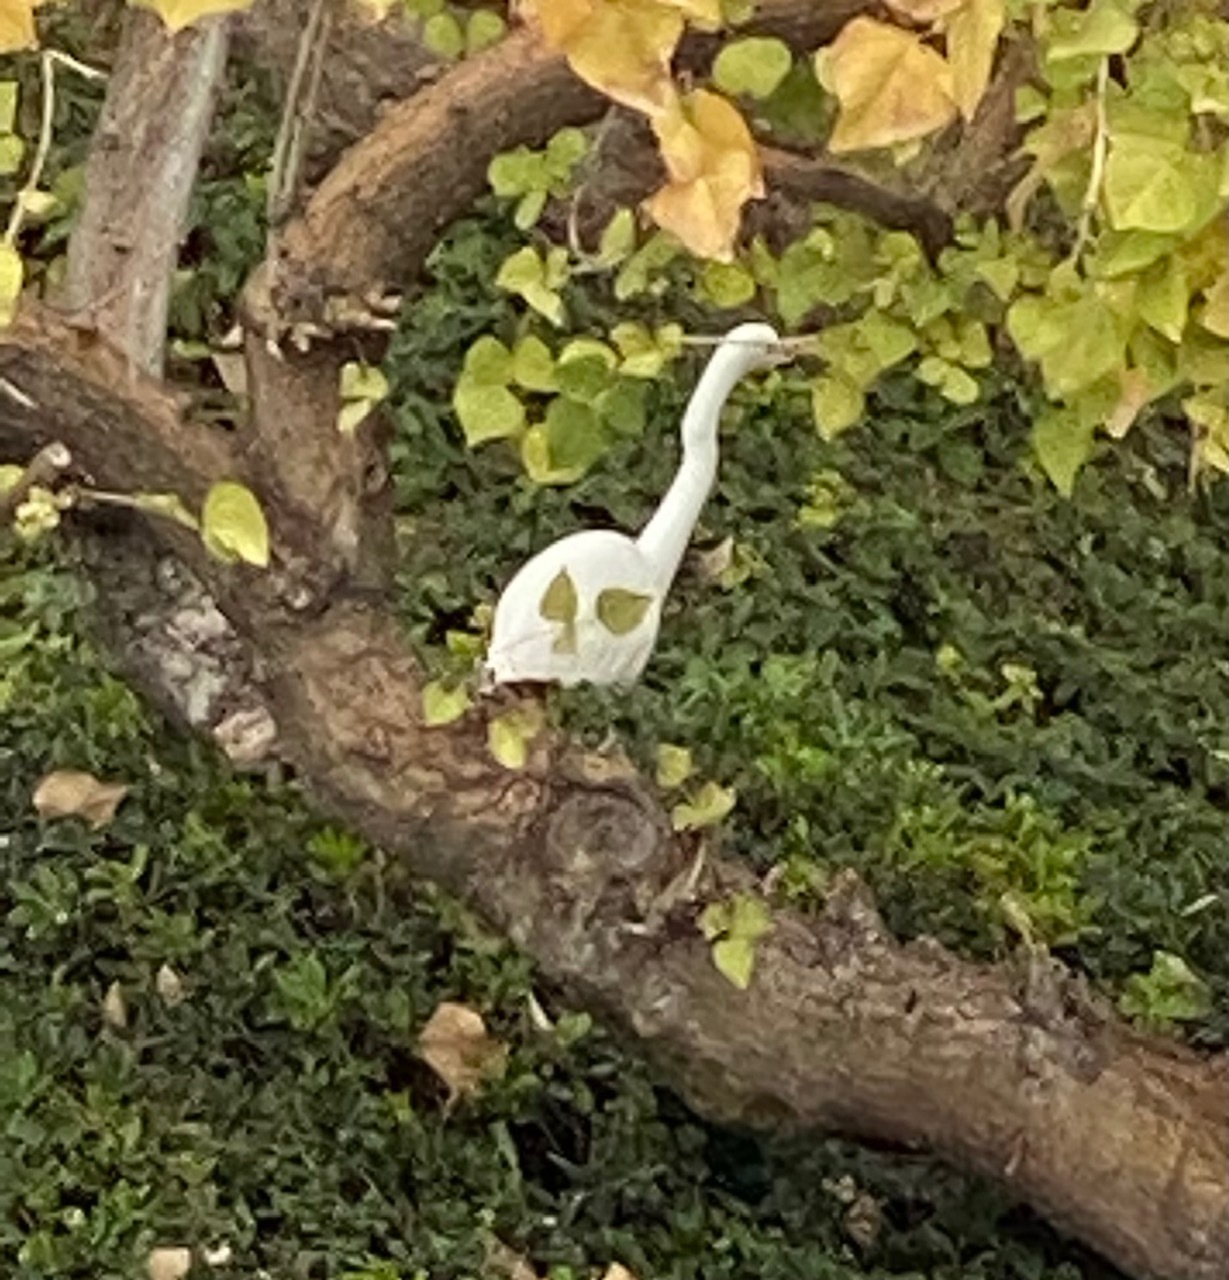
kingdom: Animalia
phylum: Chordata
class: Aves
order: Pelecaniformes
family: Ardeidae
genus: Ardea
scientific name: Ardea alba
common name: Great egret
